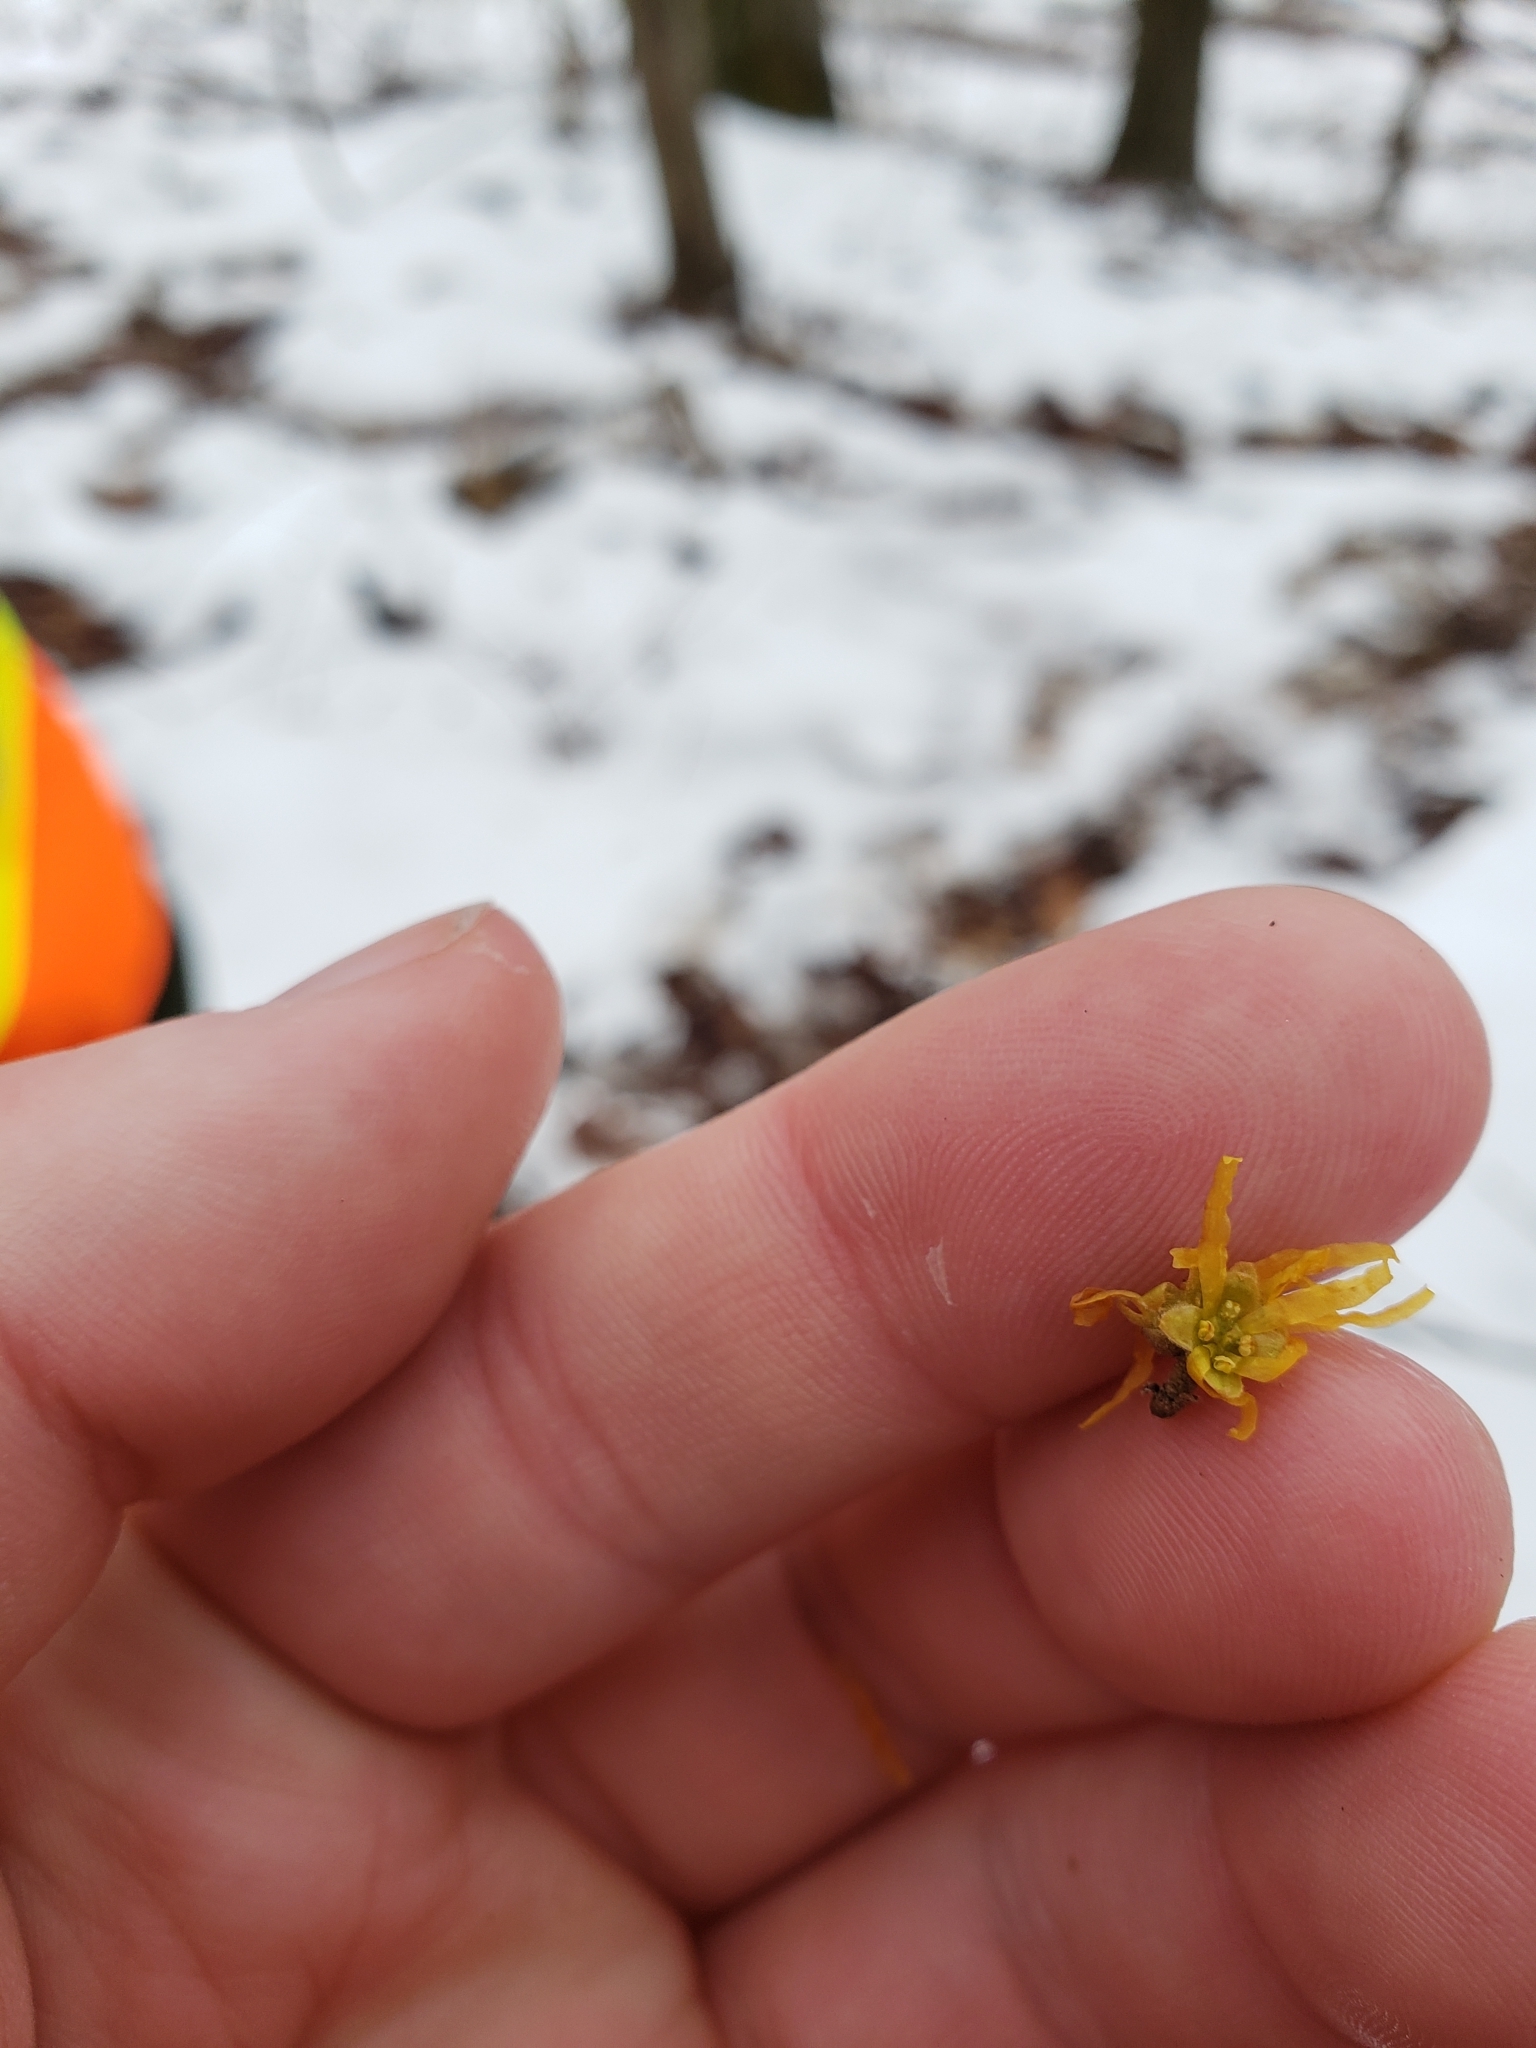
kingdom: Plantae
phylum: Tracheophyta
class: Magnoliopsida
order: Saxifragales
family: Hamamelidaceae
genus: Hamamelis
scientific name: Hamamelis virginiana
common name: Witch-hazel
